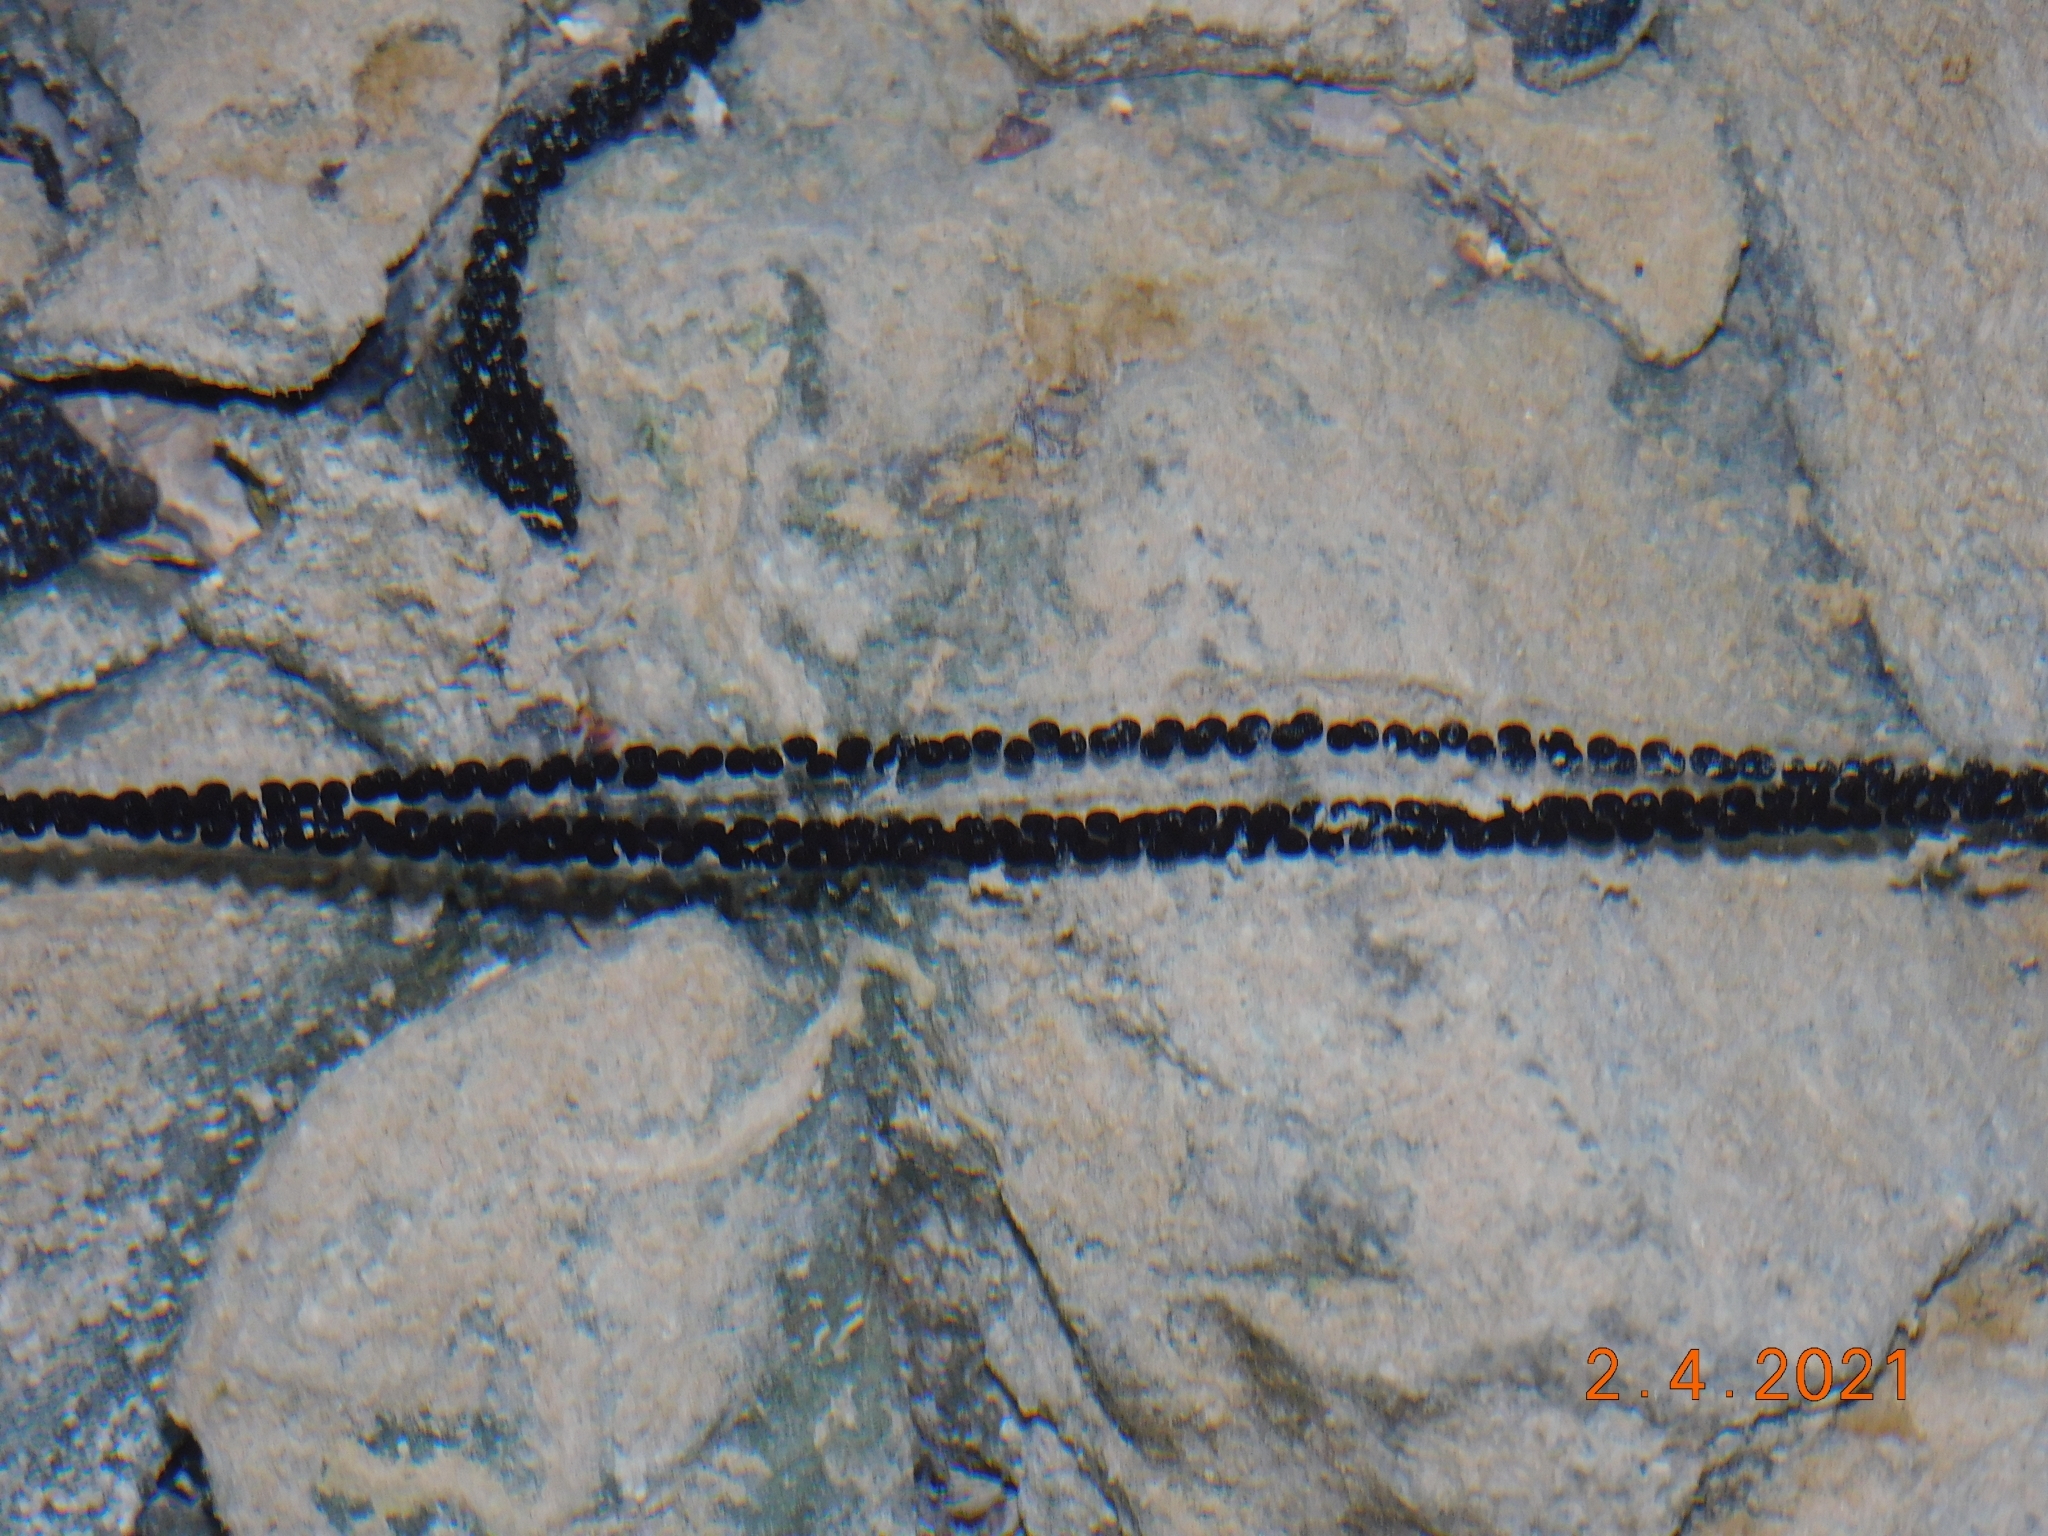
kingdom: Animalia
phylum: Chordata
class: Amphibia
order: Anura
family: Bufonidae
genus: Bufo
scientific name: Bufo bufo
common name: Common toad
